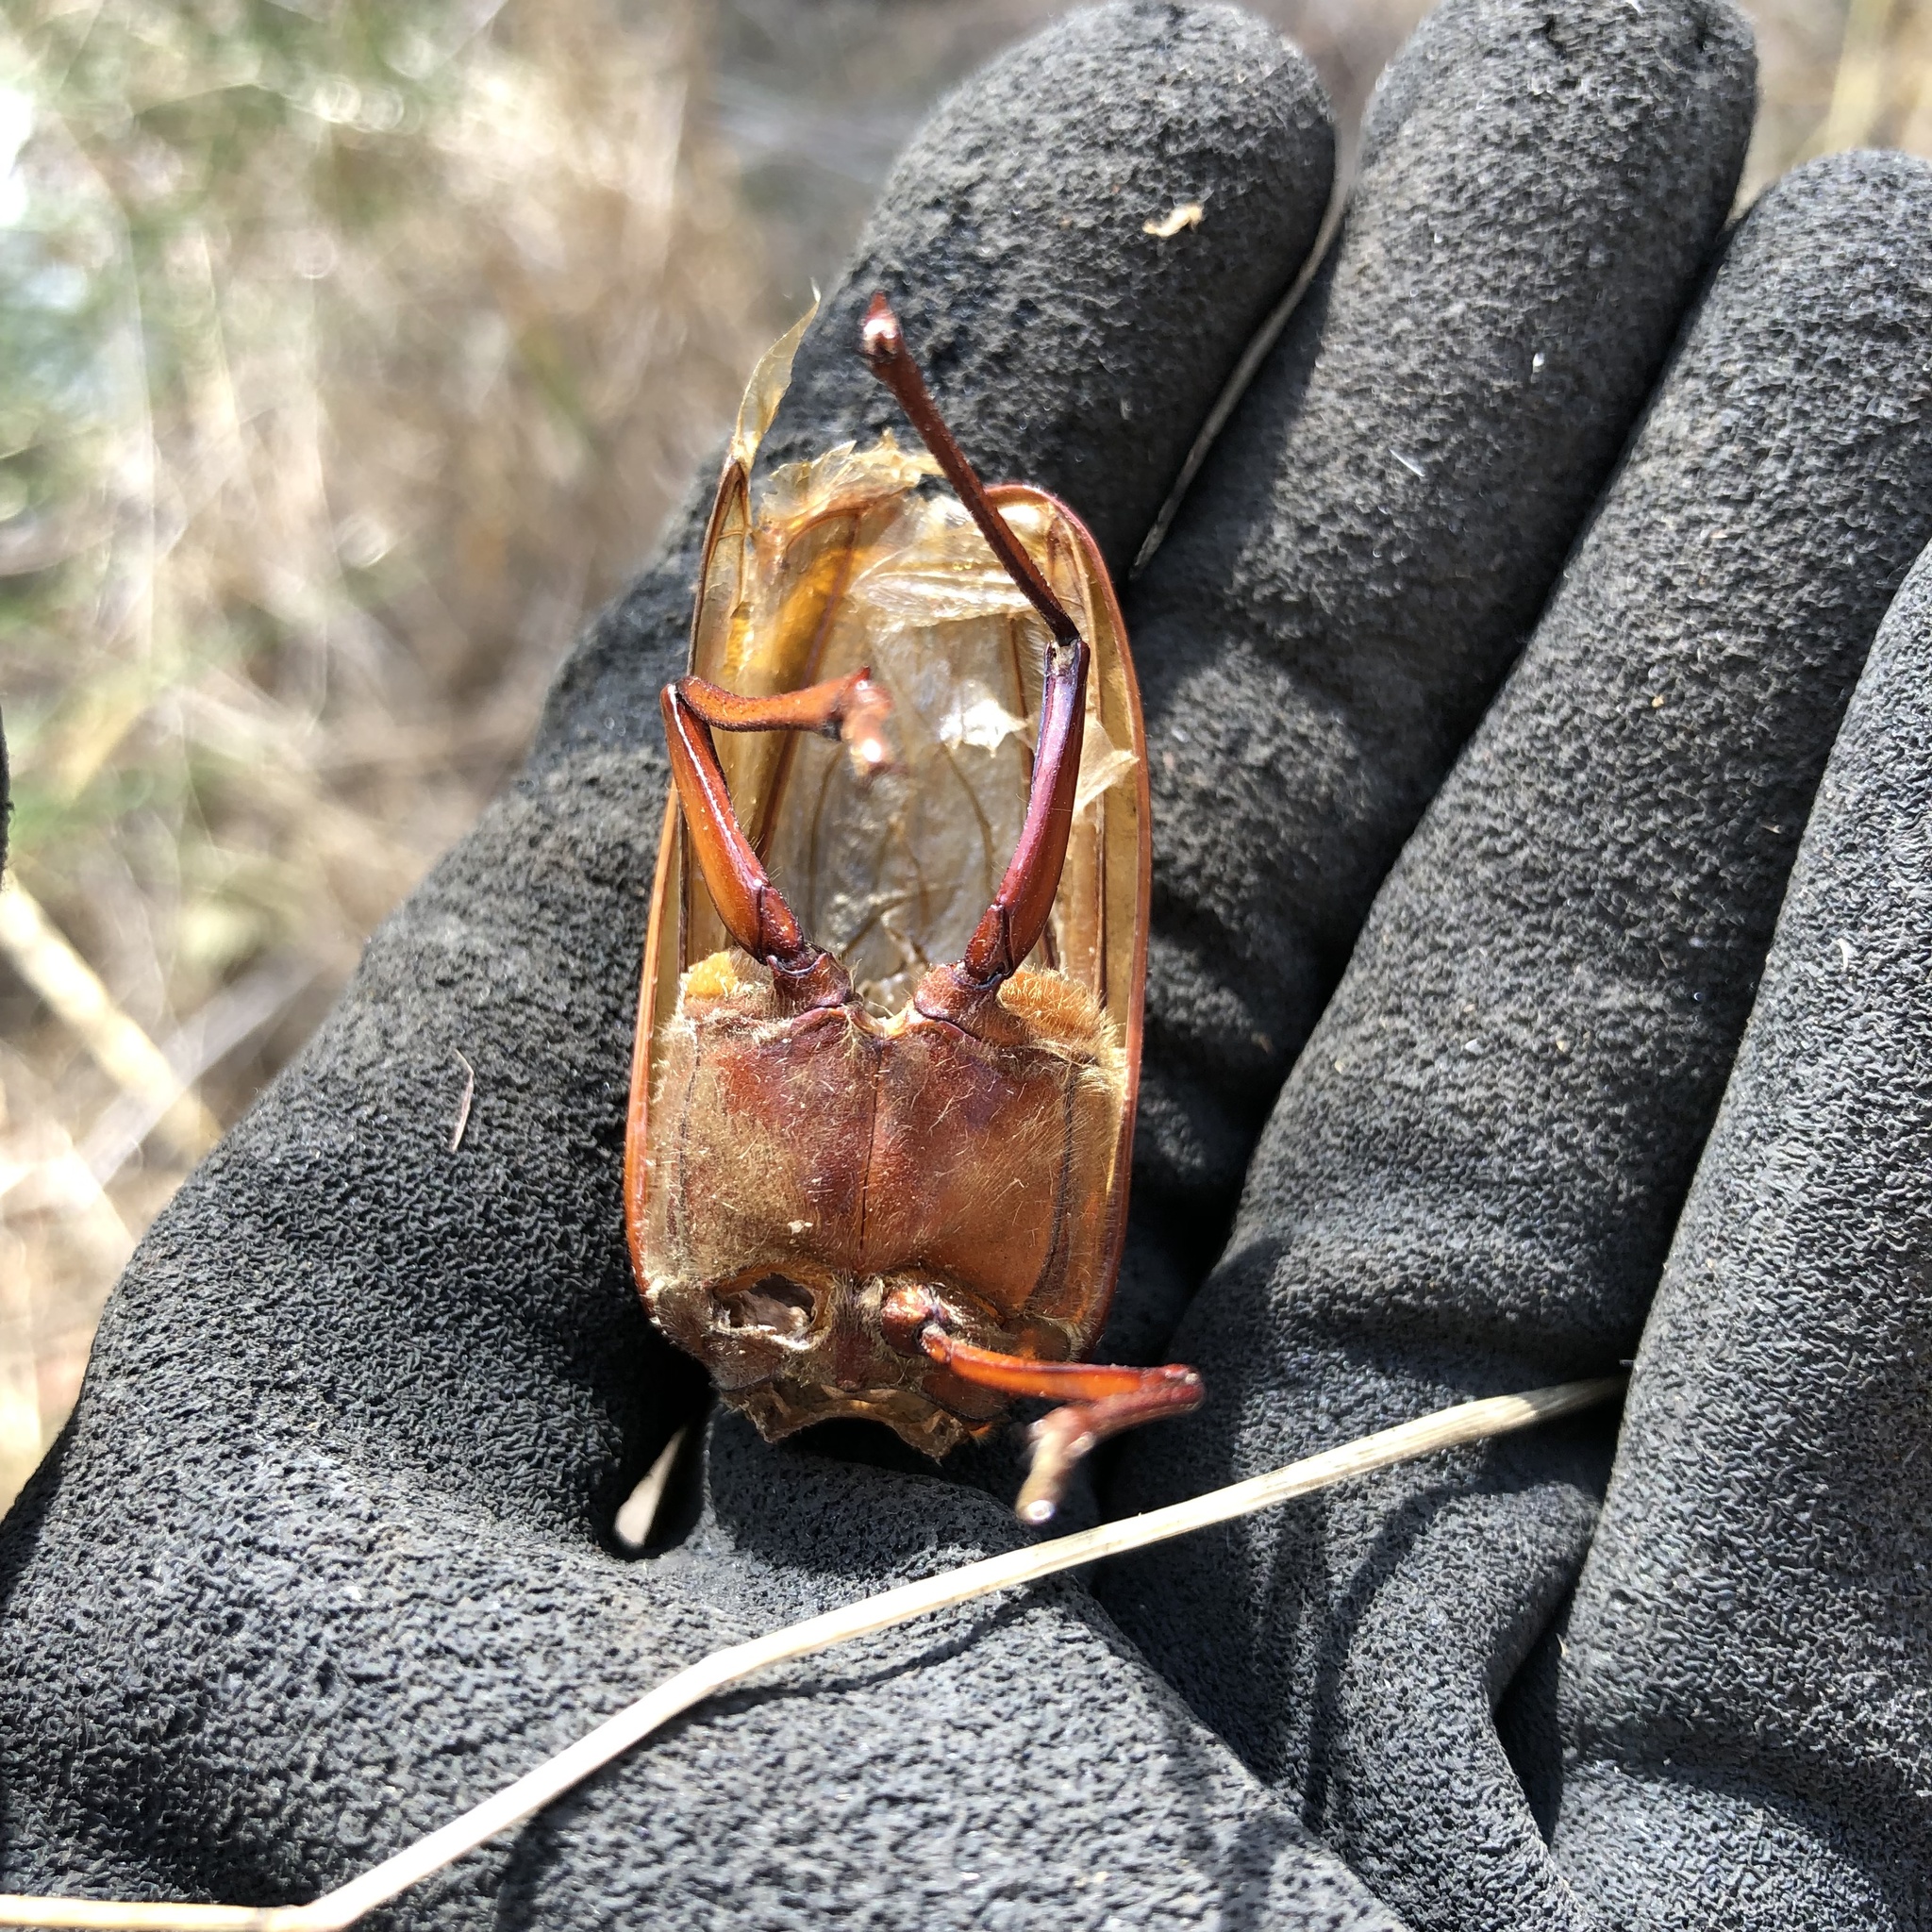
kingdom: Animalia
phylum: Arthropoda
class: Insecta
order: Coleoptera
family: Cerambycidae
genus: Prionus
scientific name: Prionus californicus
